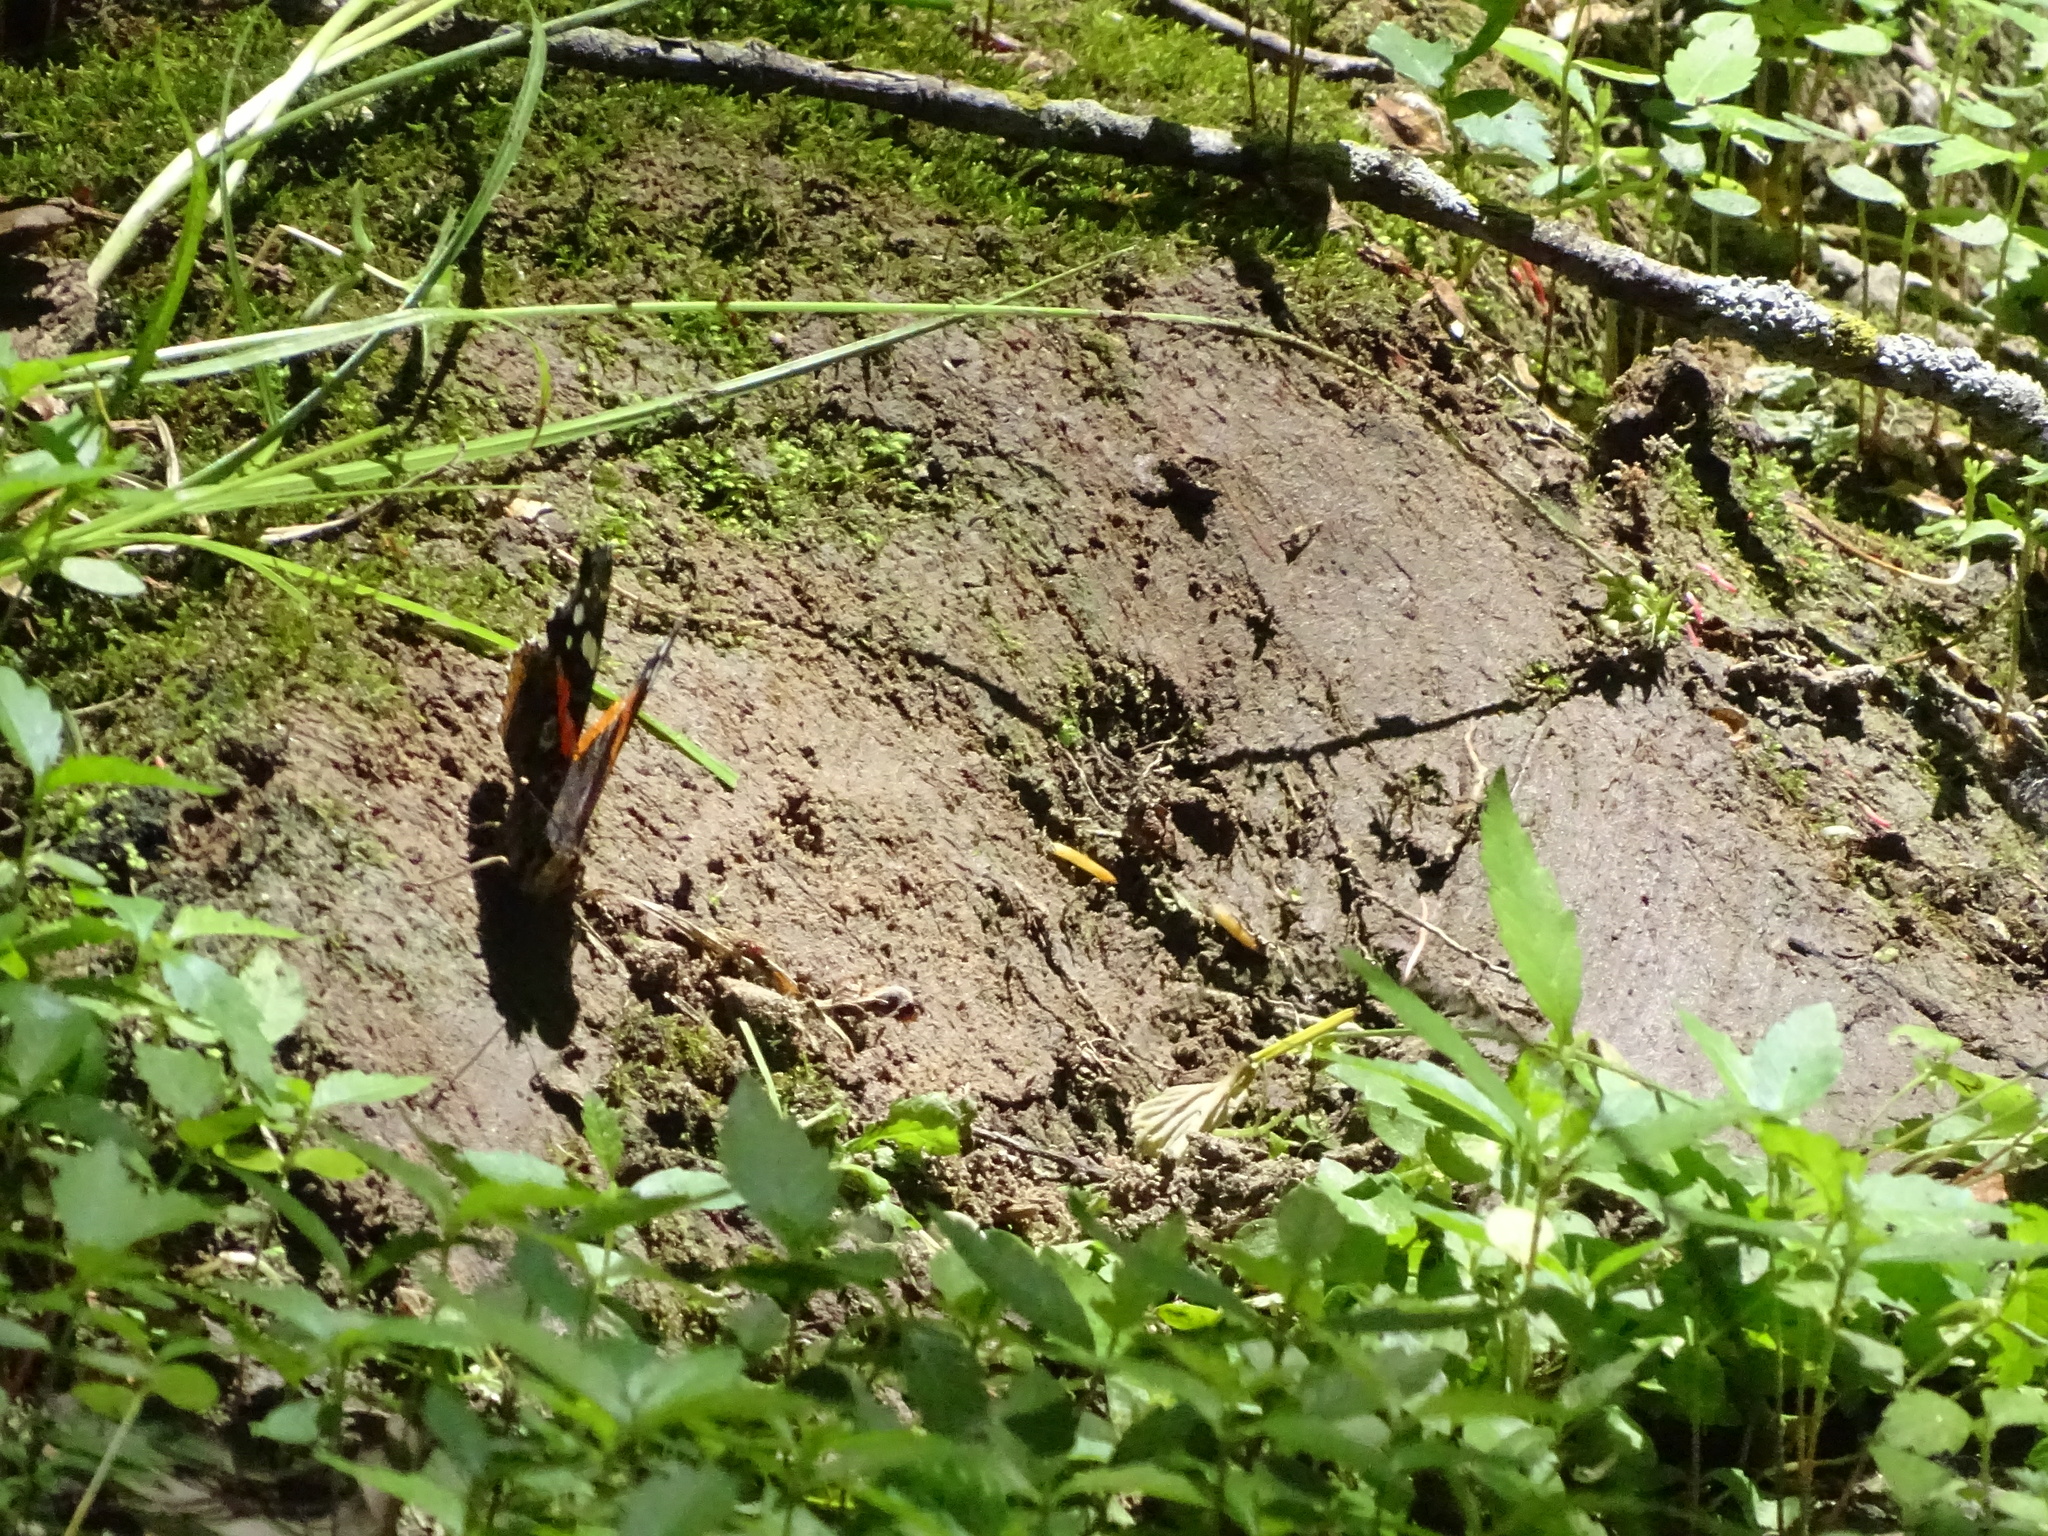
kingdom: Animalia
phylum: Arthropoda
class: Insecta
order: Lepidoptera
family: Nymphalidae
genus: Vanessa
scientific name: Vanessa atalanta
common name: Red admiral
